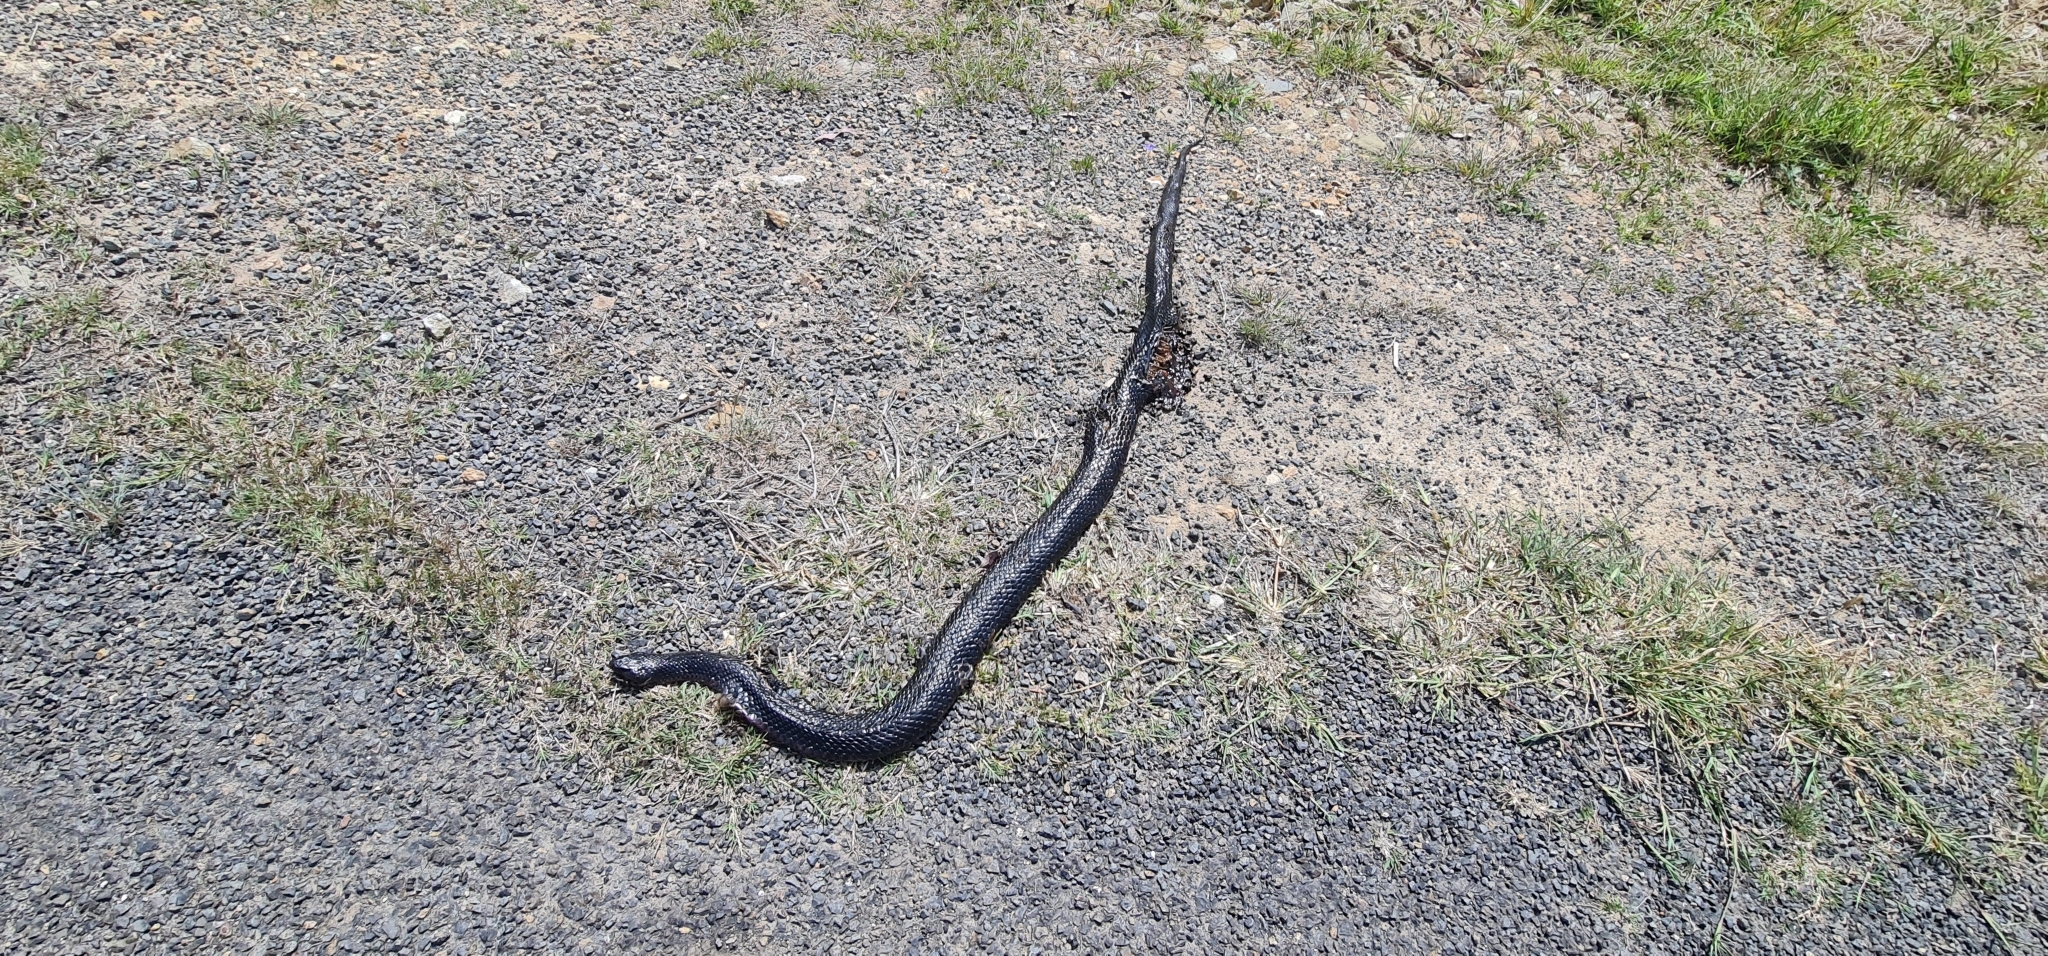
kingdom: Animalia
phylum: Chordata
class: Squamata
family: Elapidae
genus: Pseudechis
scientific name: Pseudechis porphyriacus
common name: Australian black snake
